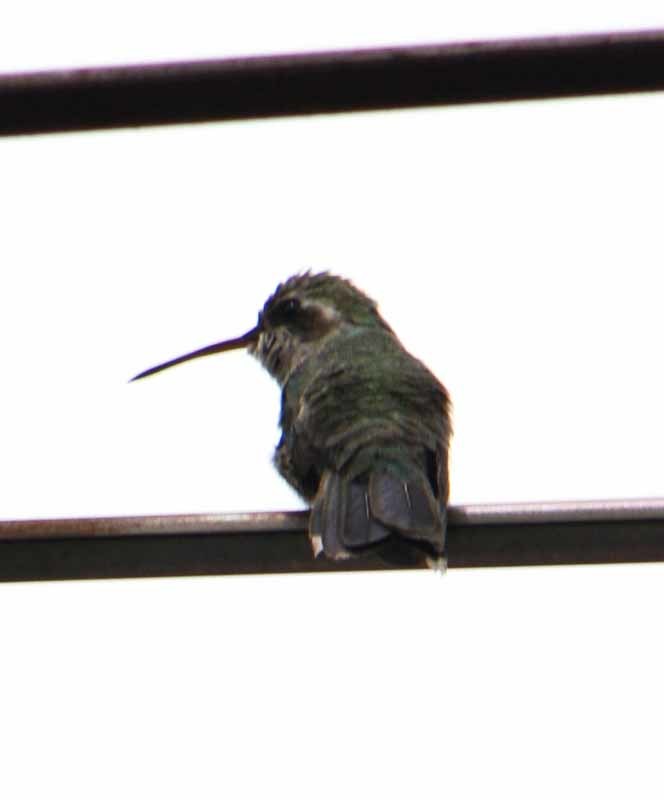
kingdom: Animalia
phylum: Chordata
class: Aves
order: Apodiformes
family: Trochilidae
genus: Cynanthus
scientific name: Cynanthus latirostris
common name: Broad-billed hummingbird
